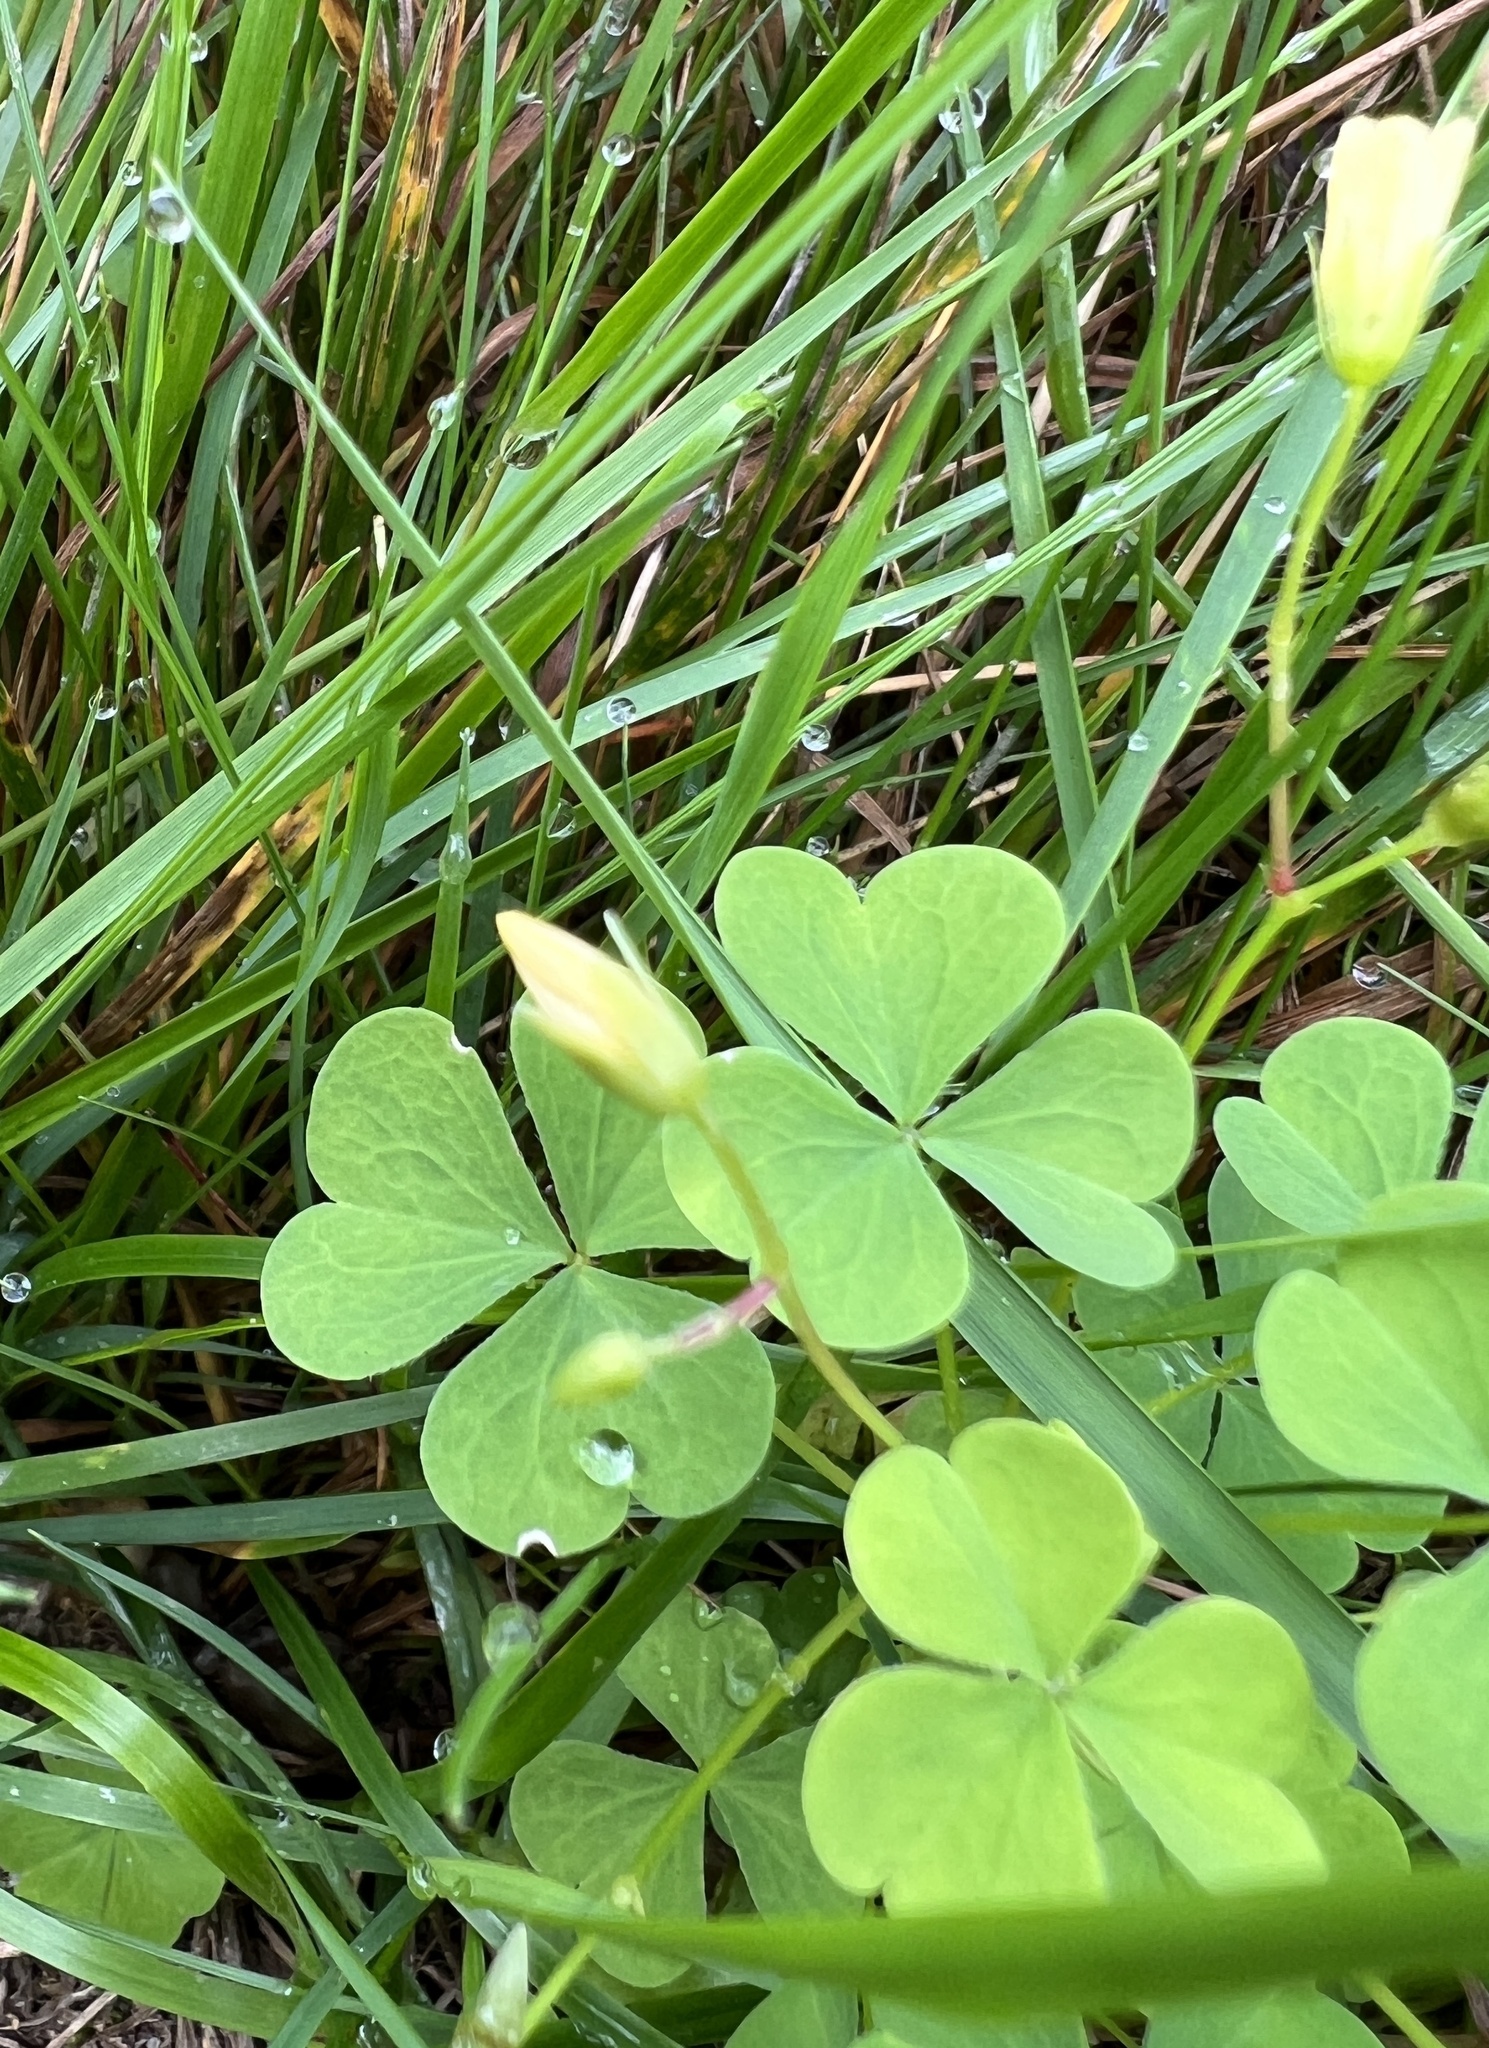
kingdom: Plantae
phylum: Tracheophyta
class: Magnoliopsida
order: Oxalidales
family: Oxalidaceae
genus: Oxalis
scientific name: Oxalis stricta
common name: Upright yellow-sorrel
